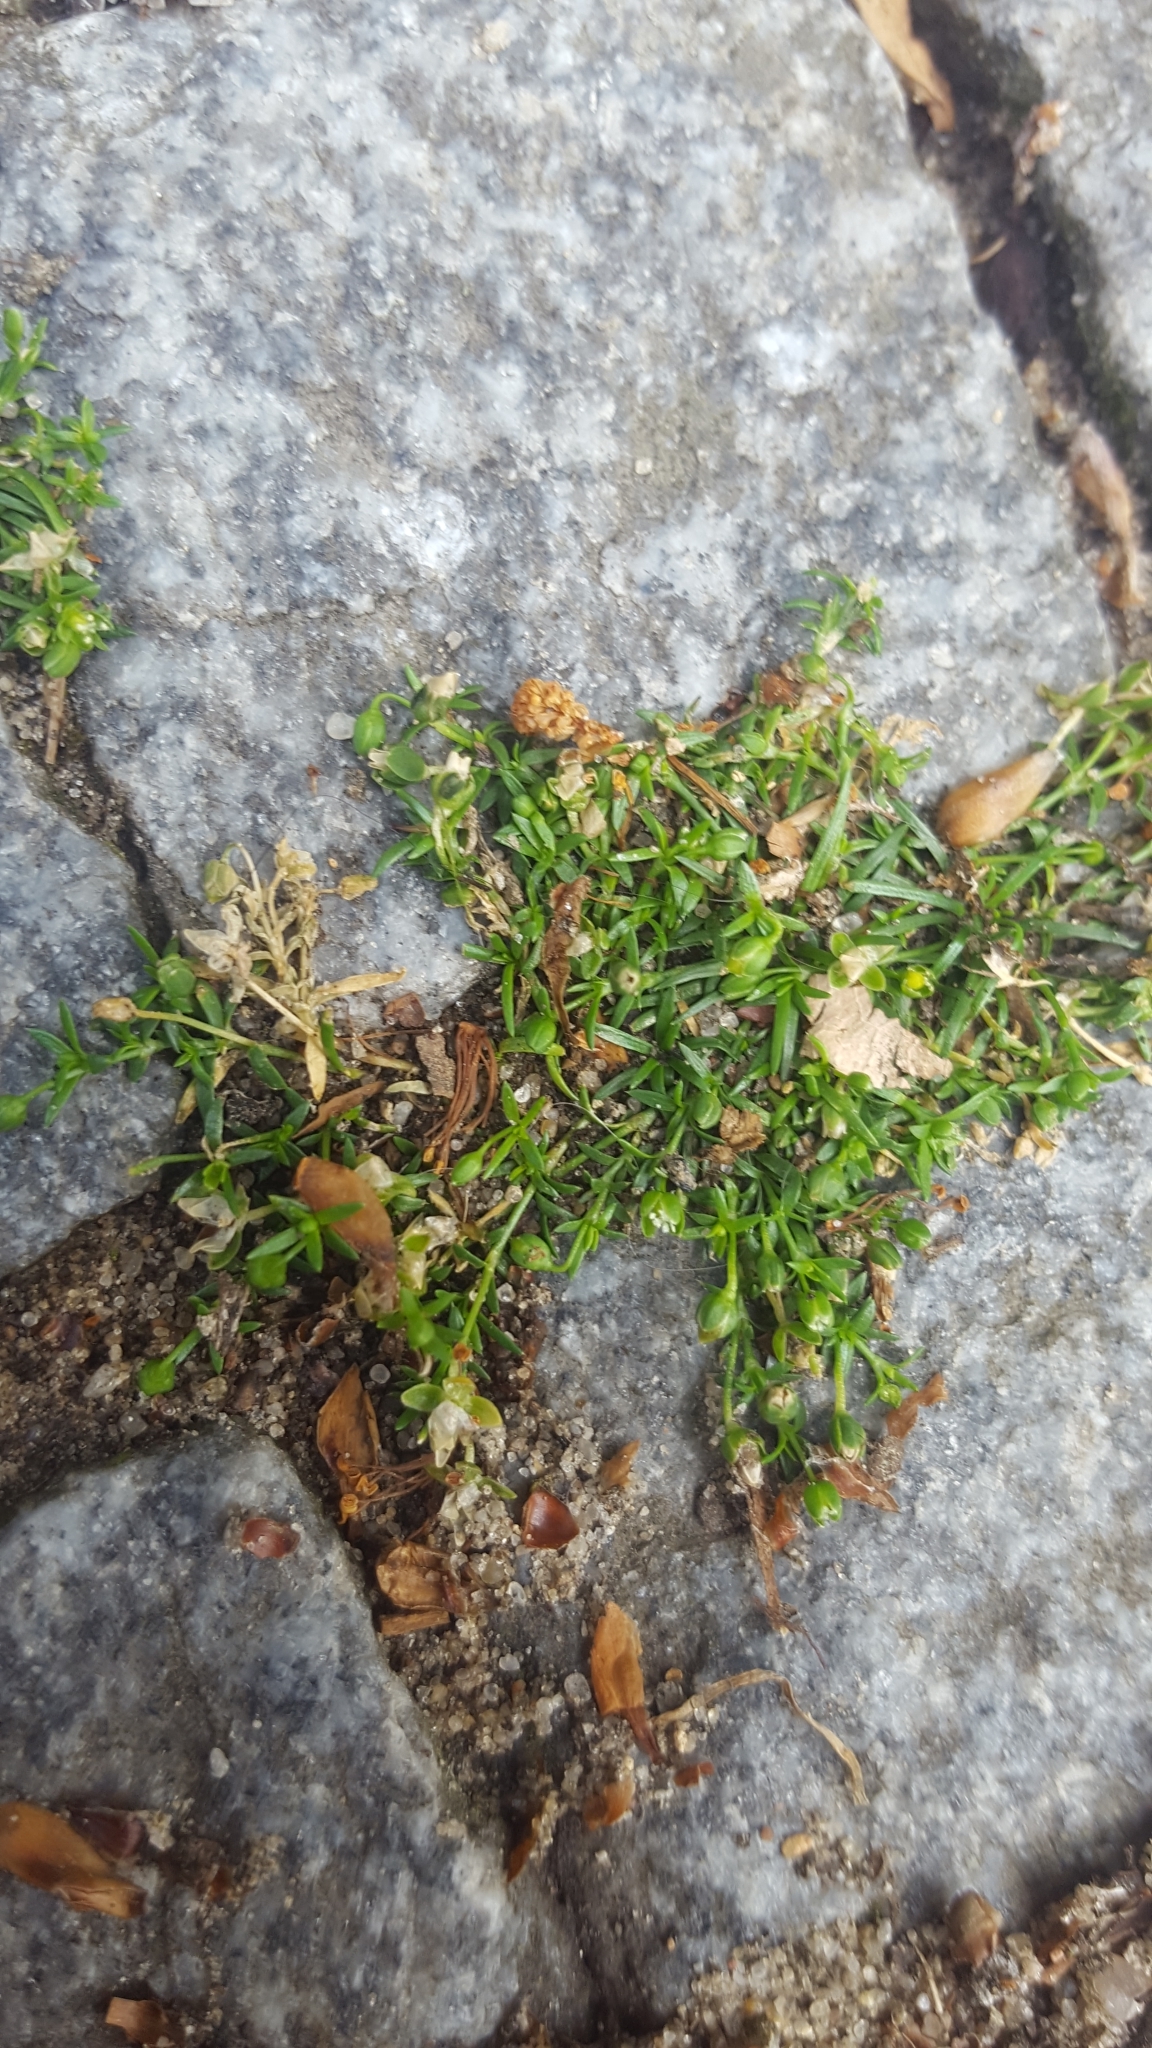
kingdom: Plantae
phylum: Tracheophyta
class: Magnoliopsida
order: Caryophyllales
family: Caryophyllaceae
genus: Sagina
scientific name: Sagina procumbens
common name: Procumbent pearlwort
